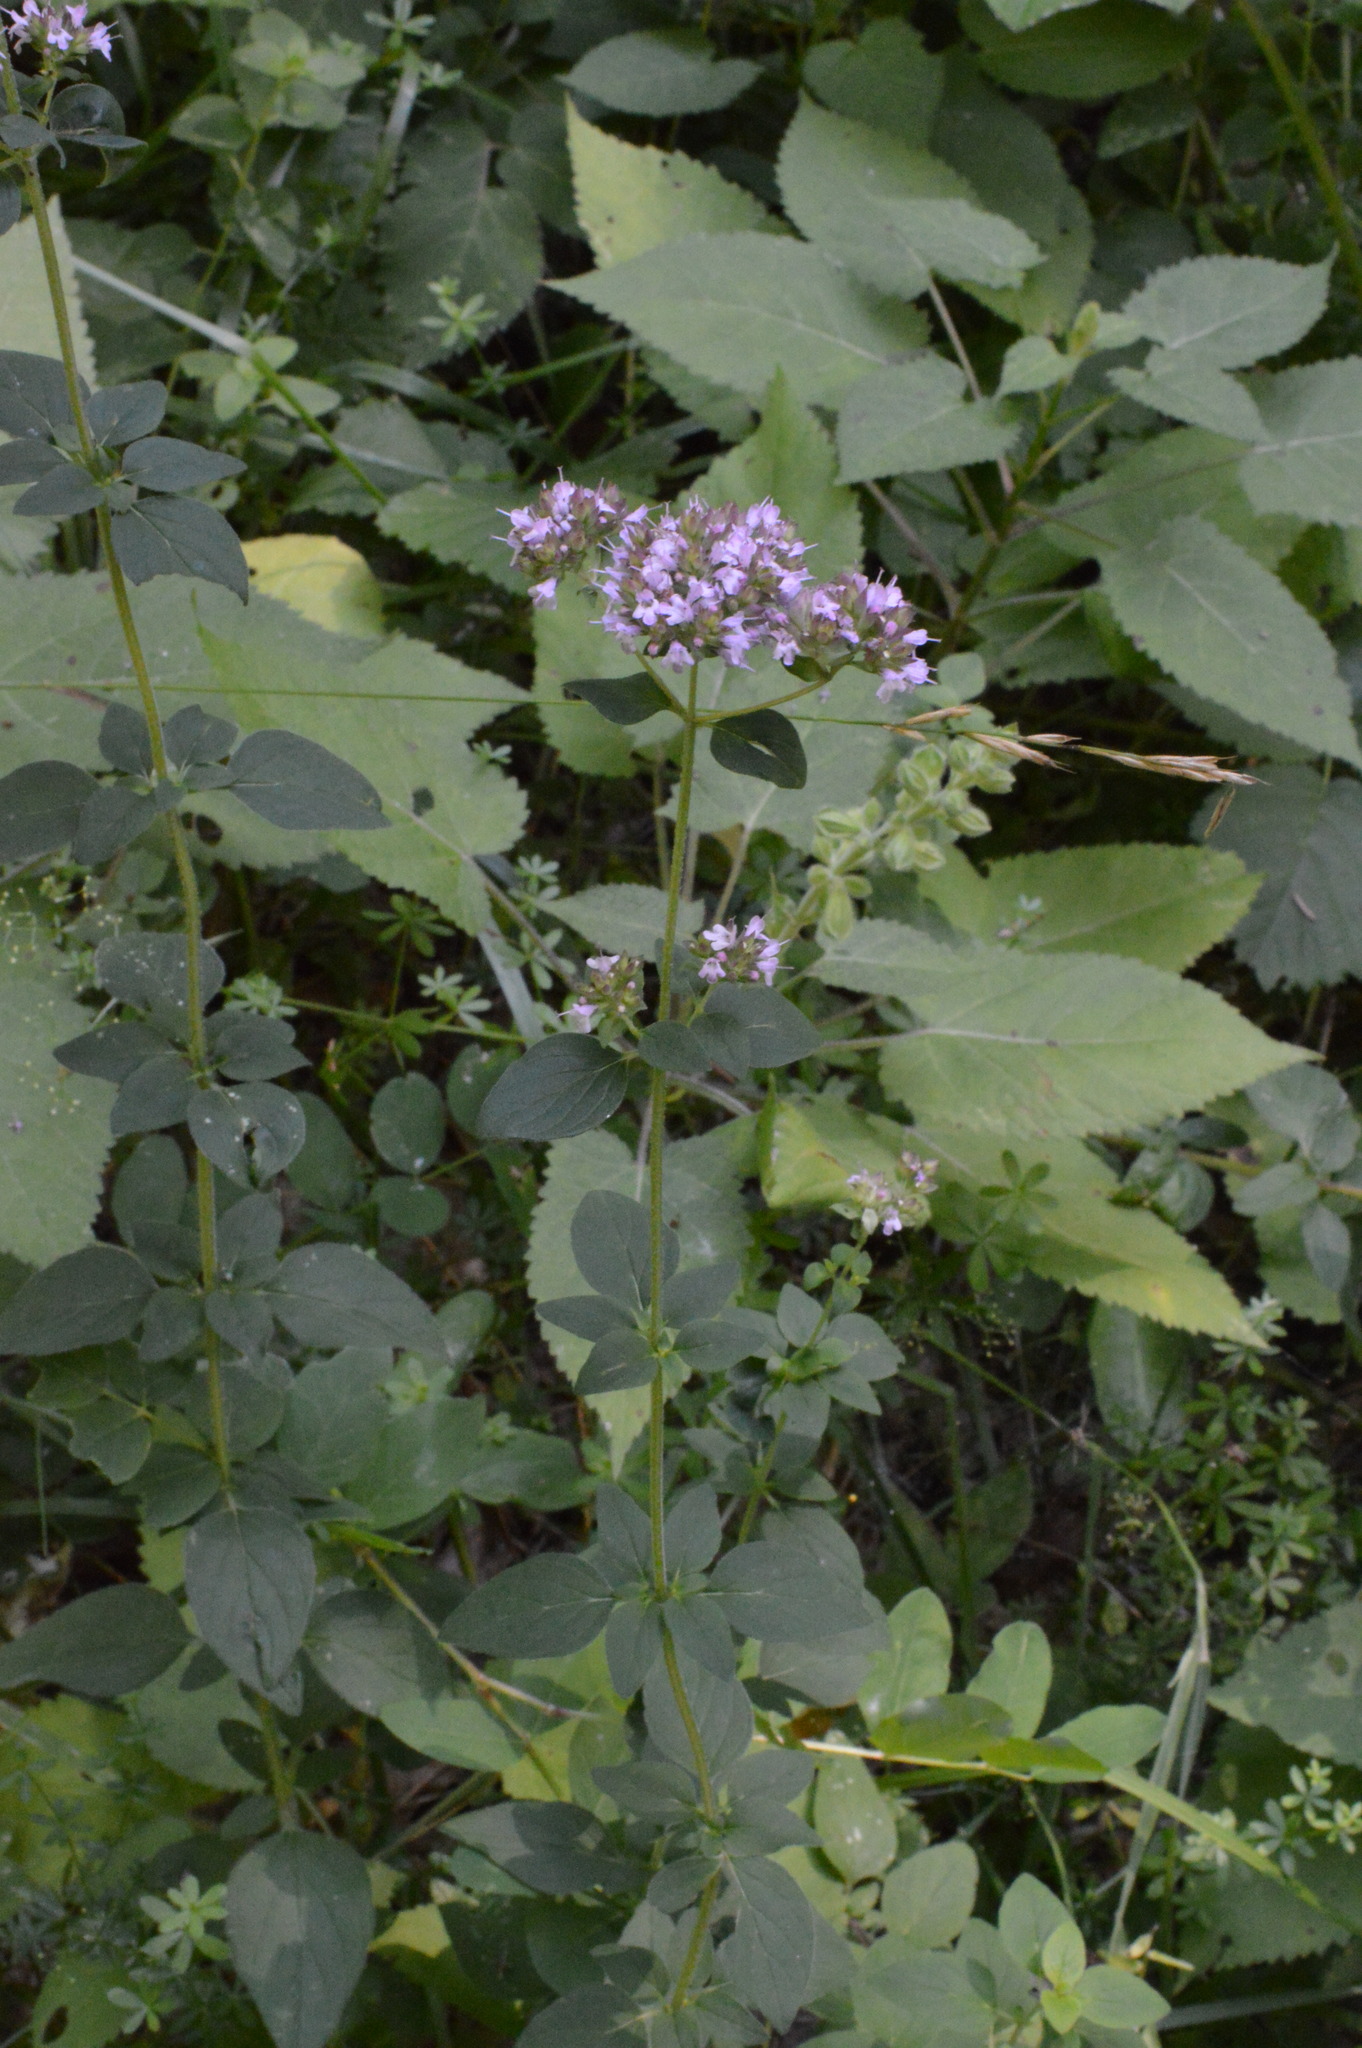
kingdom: Plantae
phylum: Tracheophyta
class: Magnoliopsida
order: Lamiales
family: Lamiaceae
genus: Origanum
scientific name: Origanum vulgare
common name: Wild marjoram
